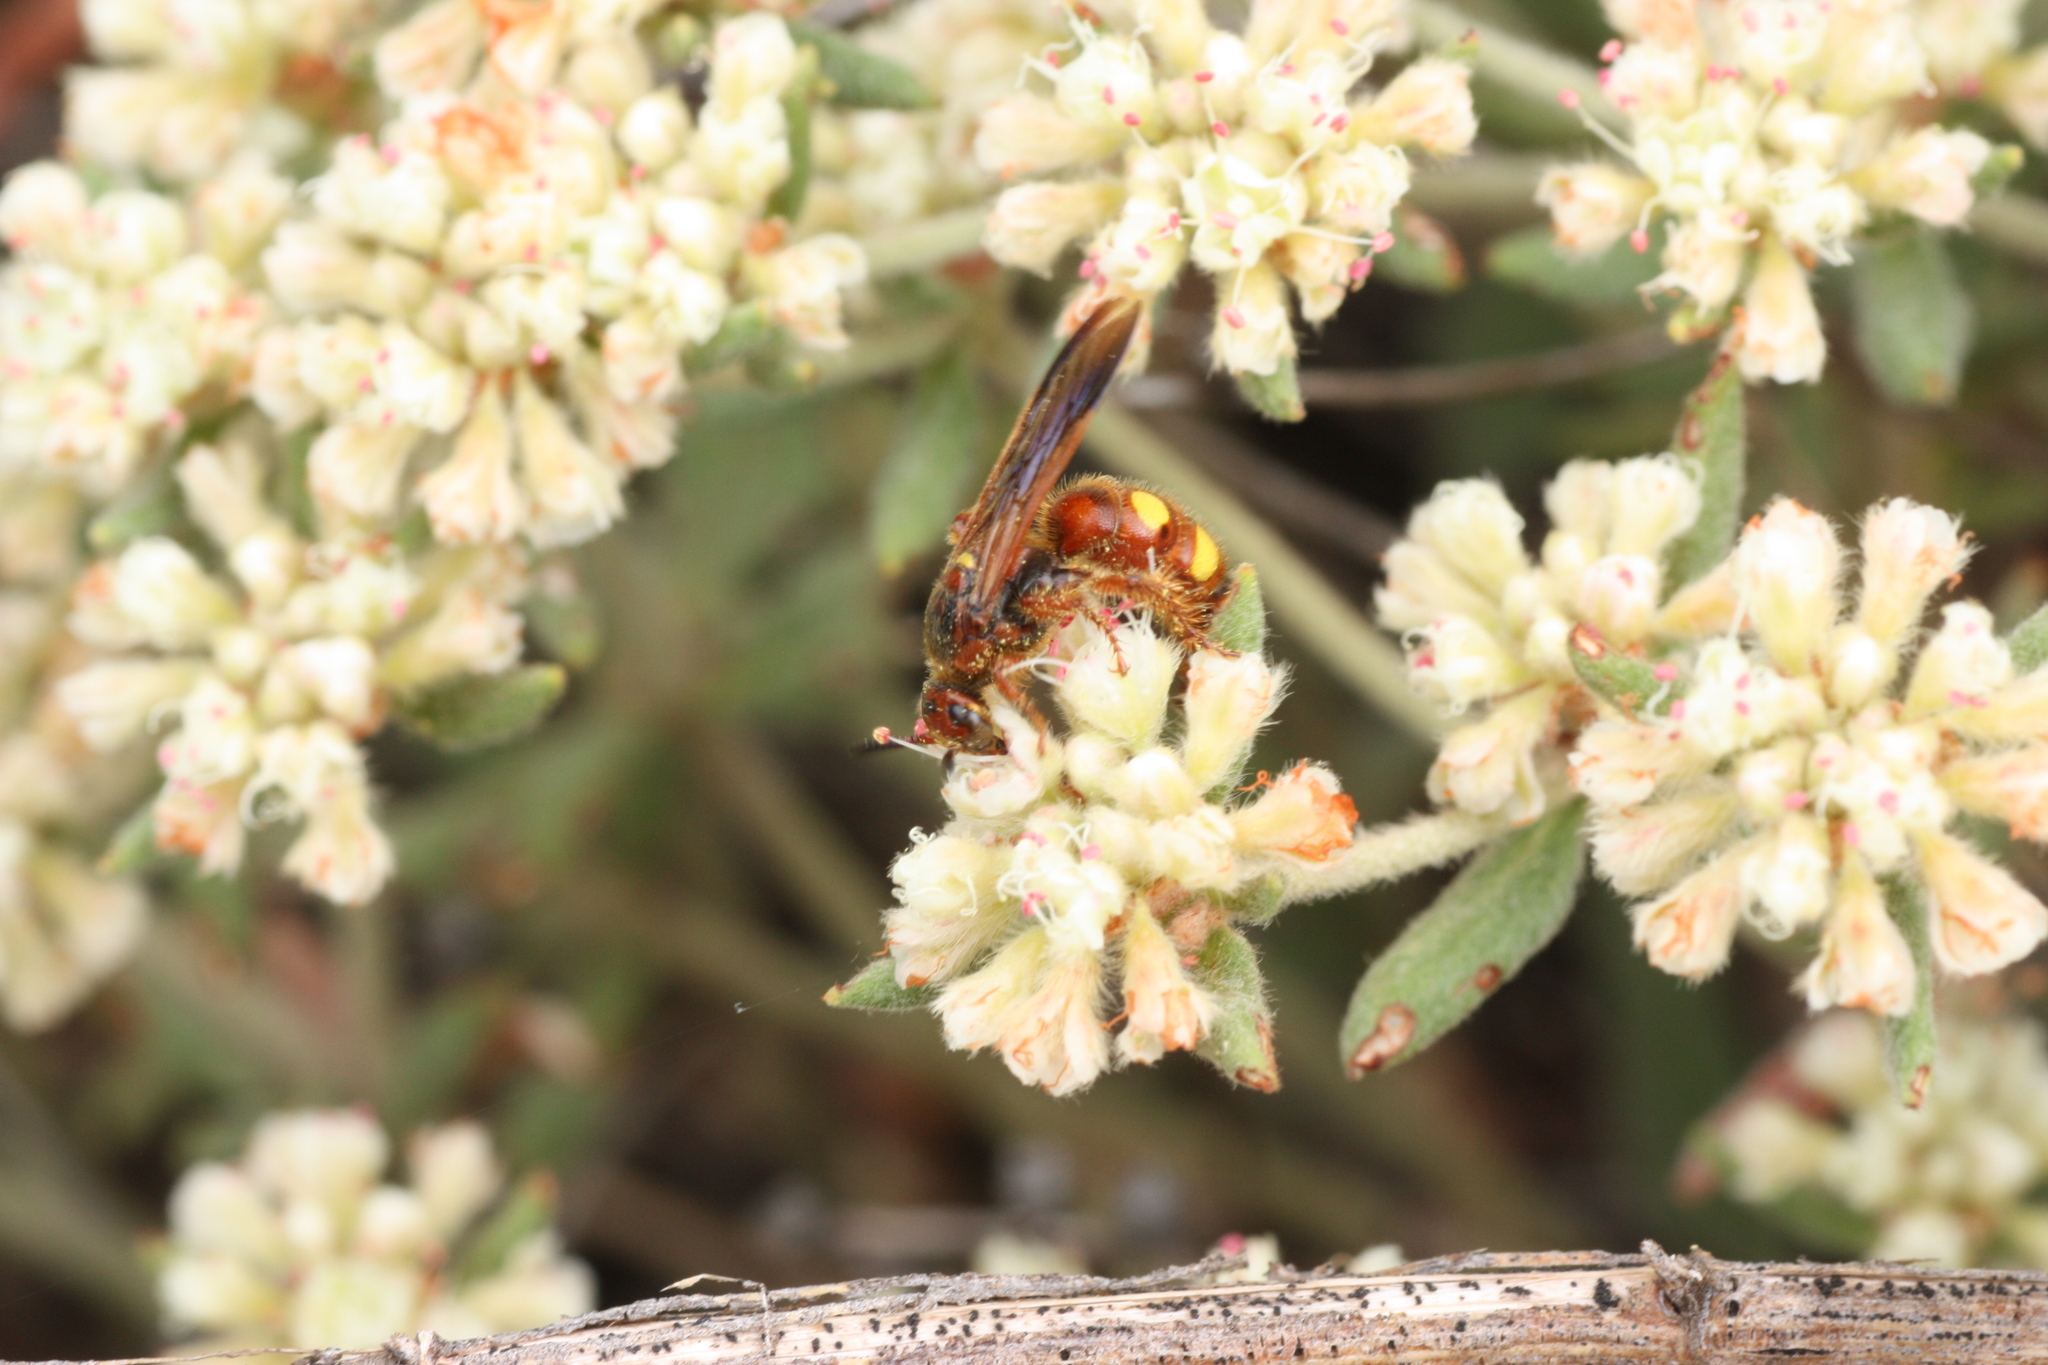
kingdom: Animalia
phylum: Arthropoda
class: Insecta
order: Hymenoptera
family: Scoliidae
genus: Colpa
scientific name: Colpa octomaculata
